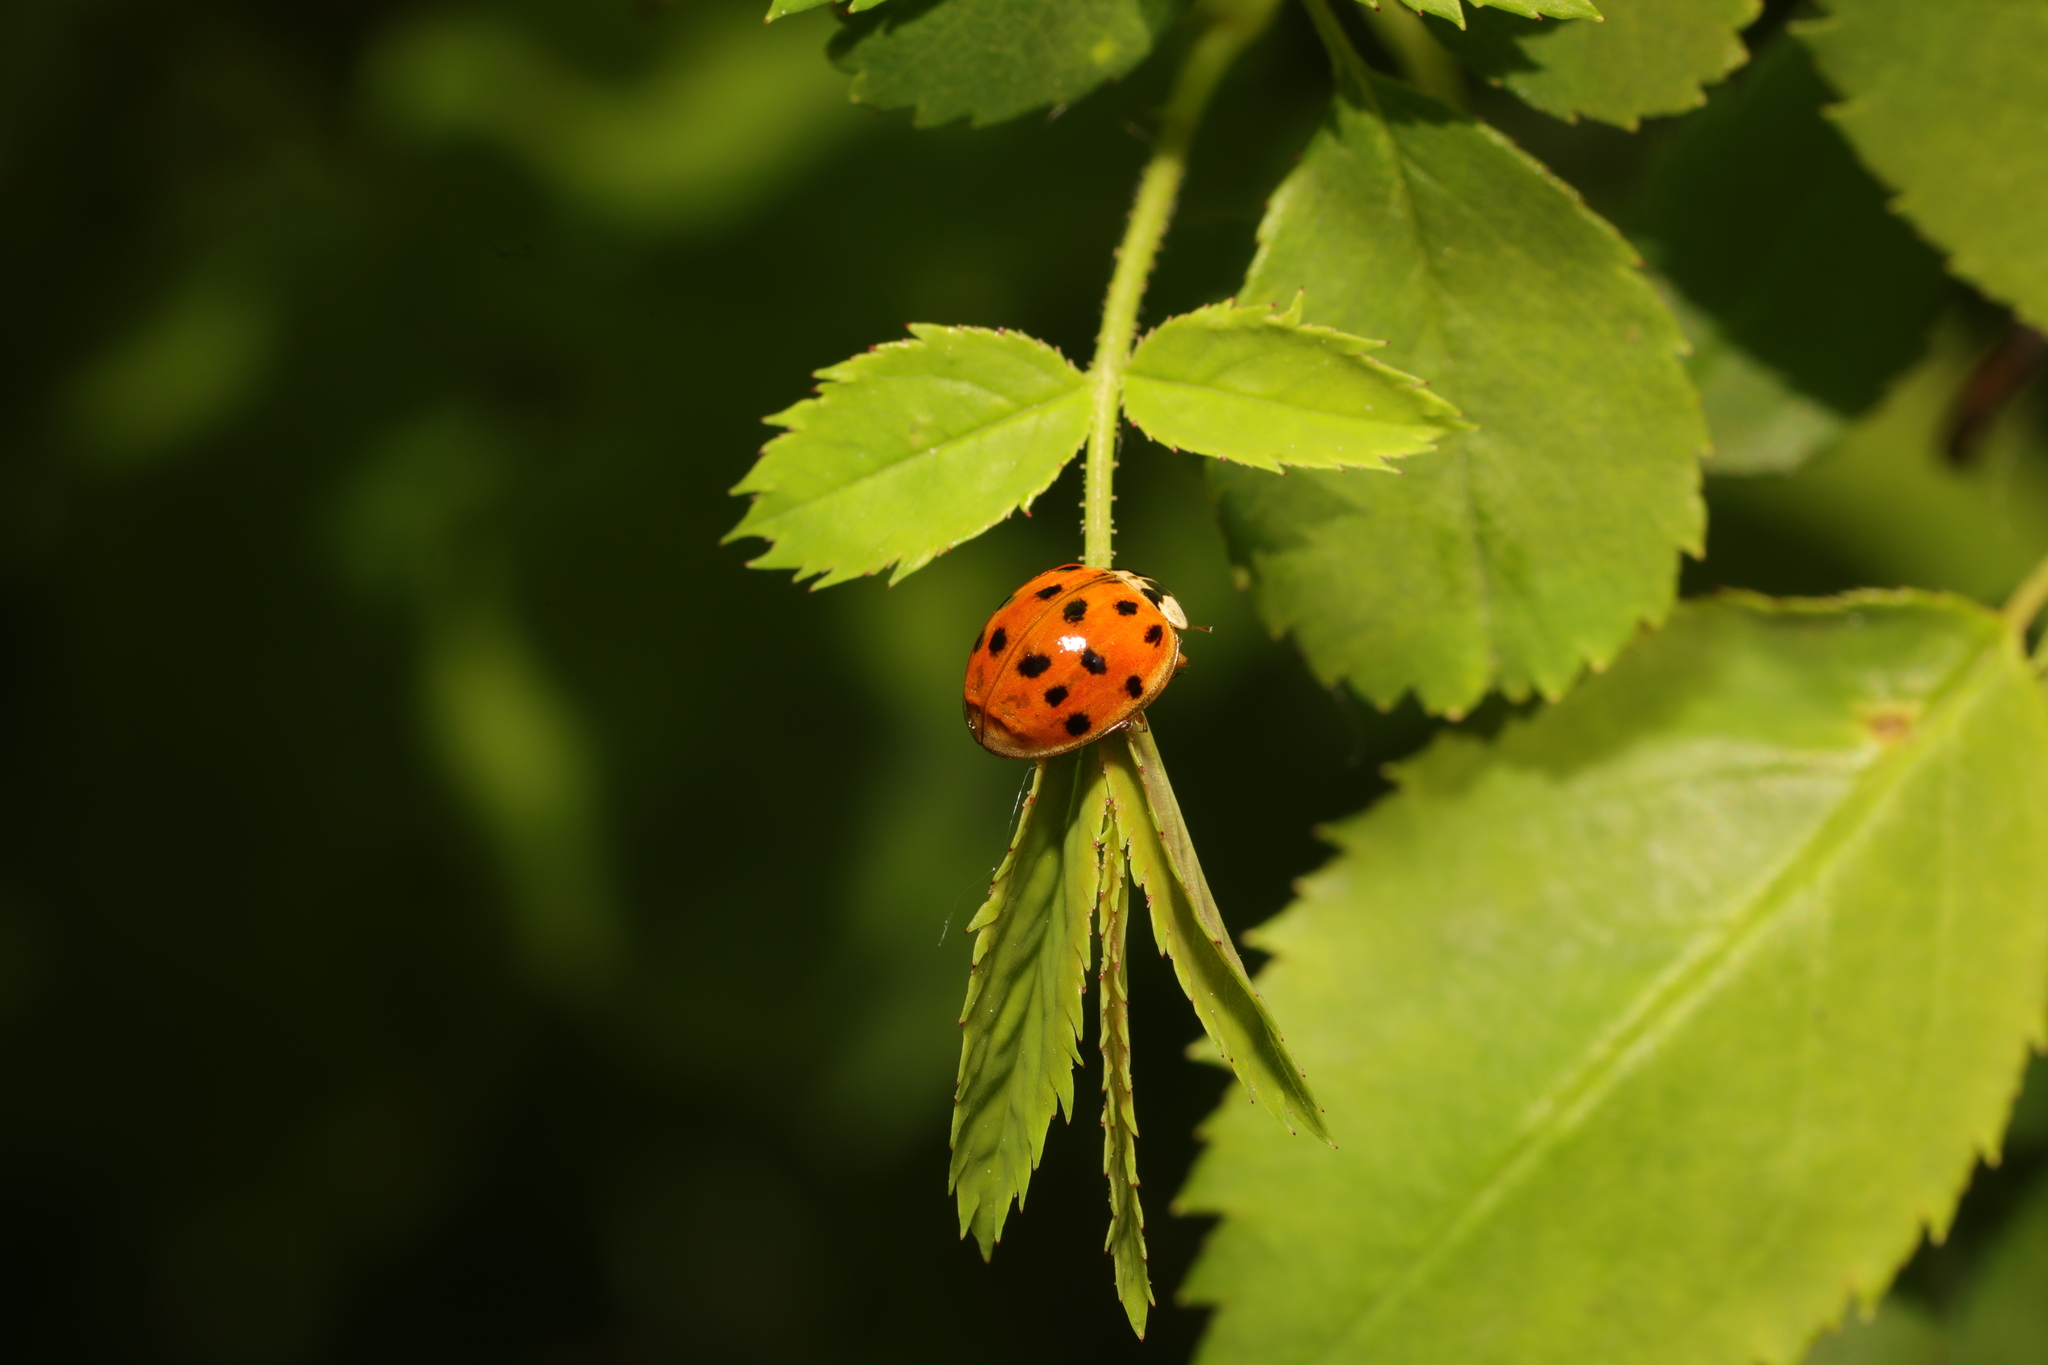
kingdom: Animalia
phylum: Arthropoda
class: Insecta
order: Coleoptera
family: Coccinellidae
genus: Harmonia
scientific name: Harmonia axyridis
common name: Harlequin ladybird
